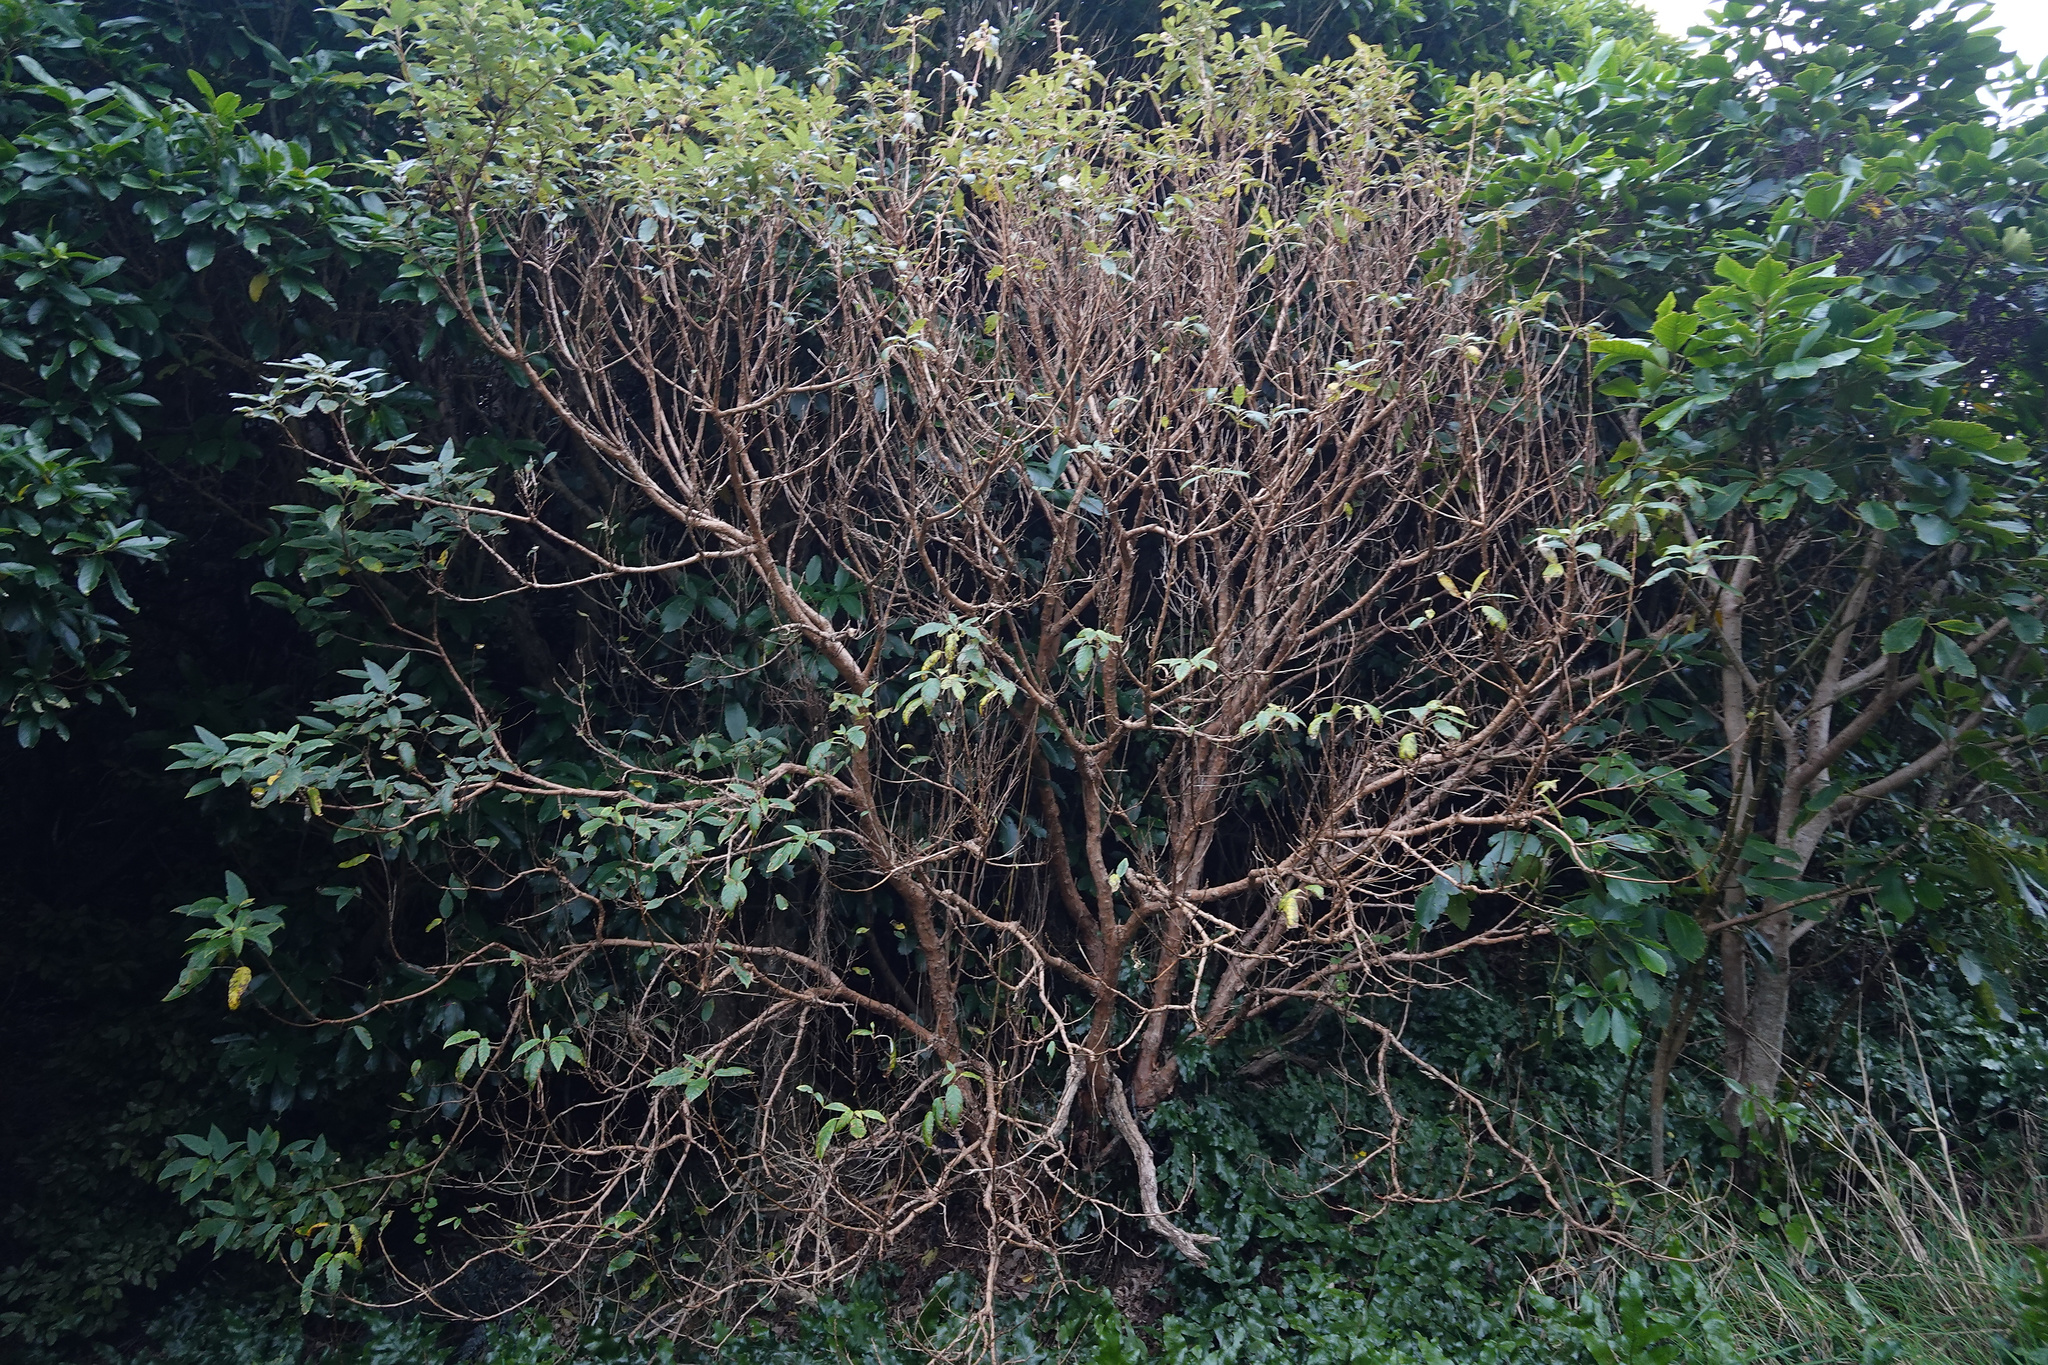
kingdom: Plantae
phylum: Tracheophyta
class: Magnoliopsida
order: Myrtales
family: Onagraceae
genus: Fuchsia
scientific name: Fuchsia excorticata
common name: Tree fuchsia
